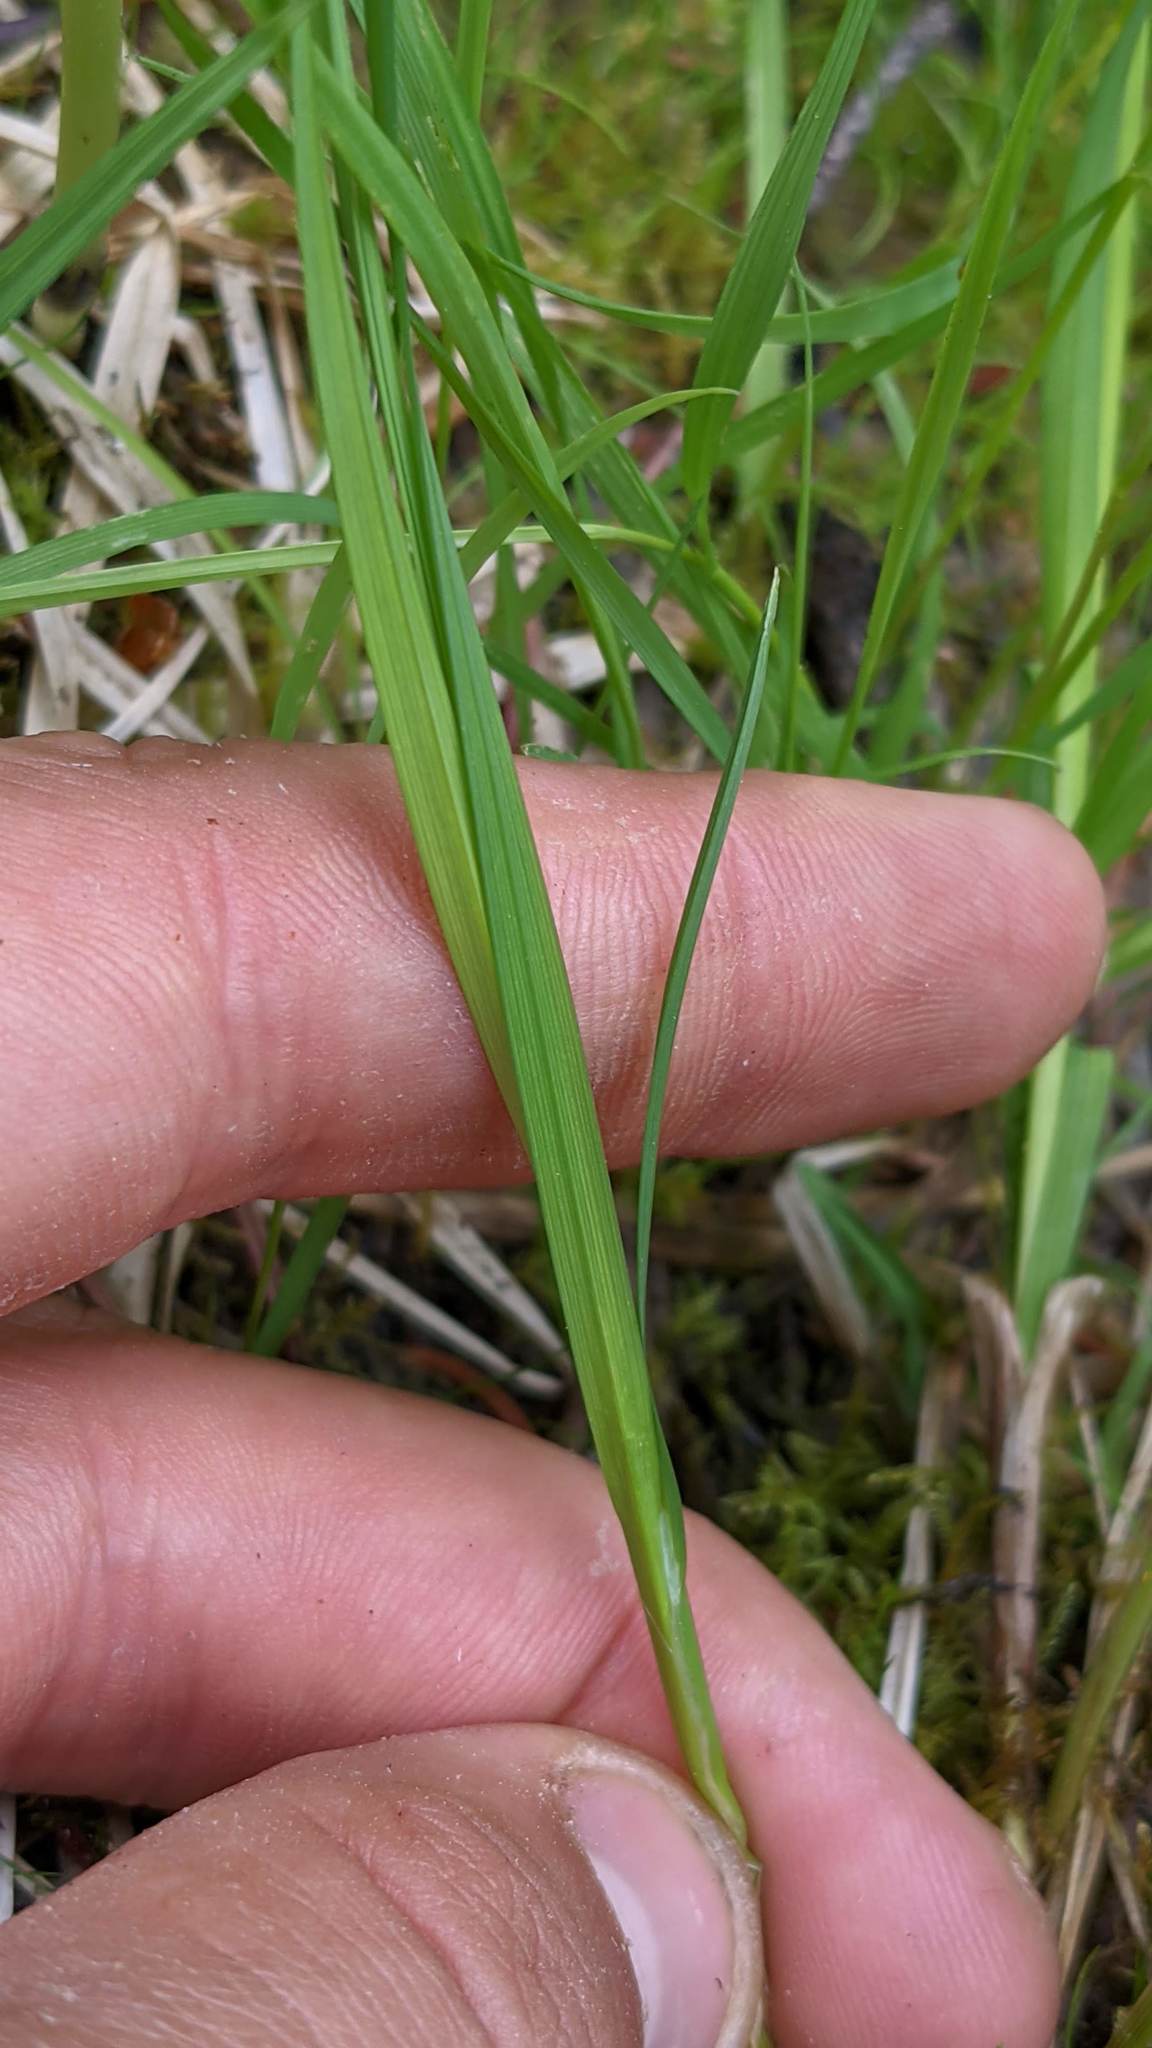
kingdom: Plantae
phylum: Tracheophyta
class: Liliopsida
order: Poales
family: Cyperaceae
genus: Carex
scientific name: Carex brunnescens
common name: Brown sedge
